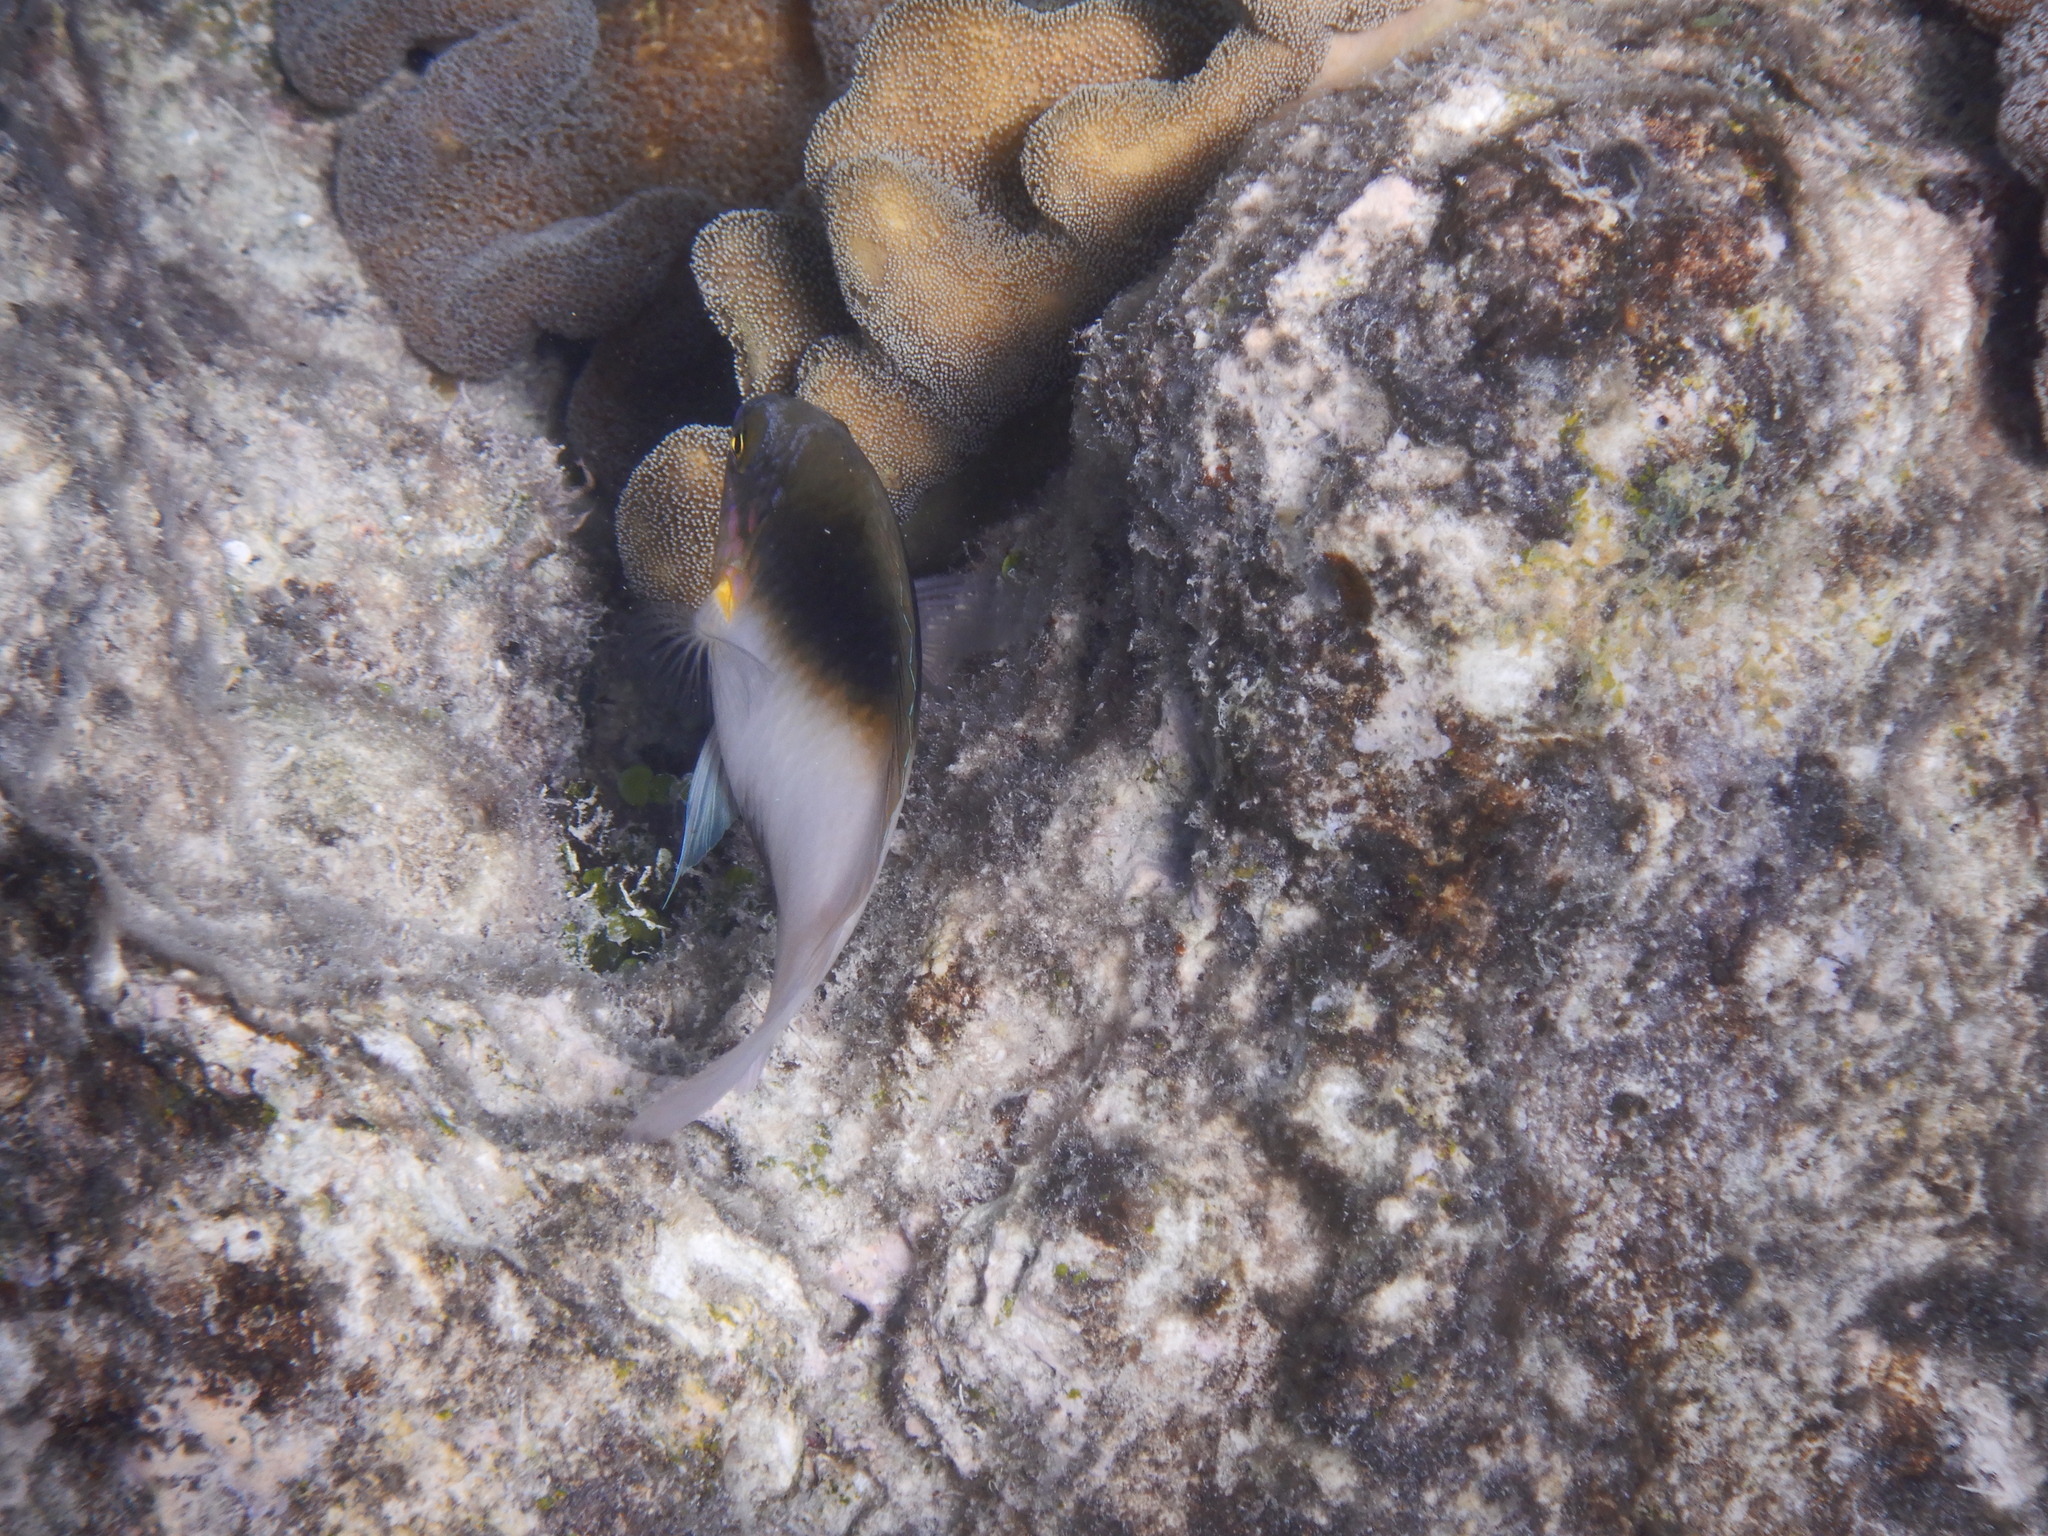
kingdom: Animalia
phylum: Chordata
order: Perciformes
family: Pomacentridae
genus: Dischistodus
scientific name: Dischistodus melanotus
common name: Black-vent damsel
